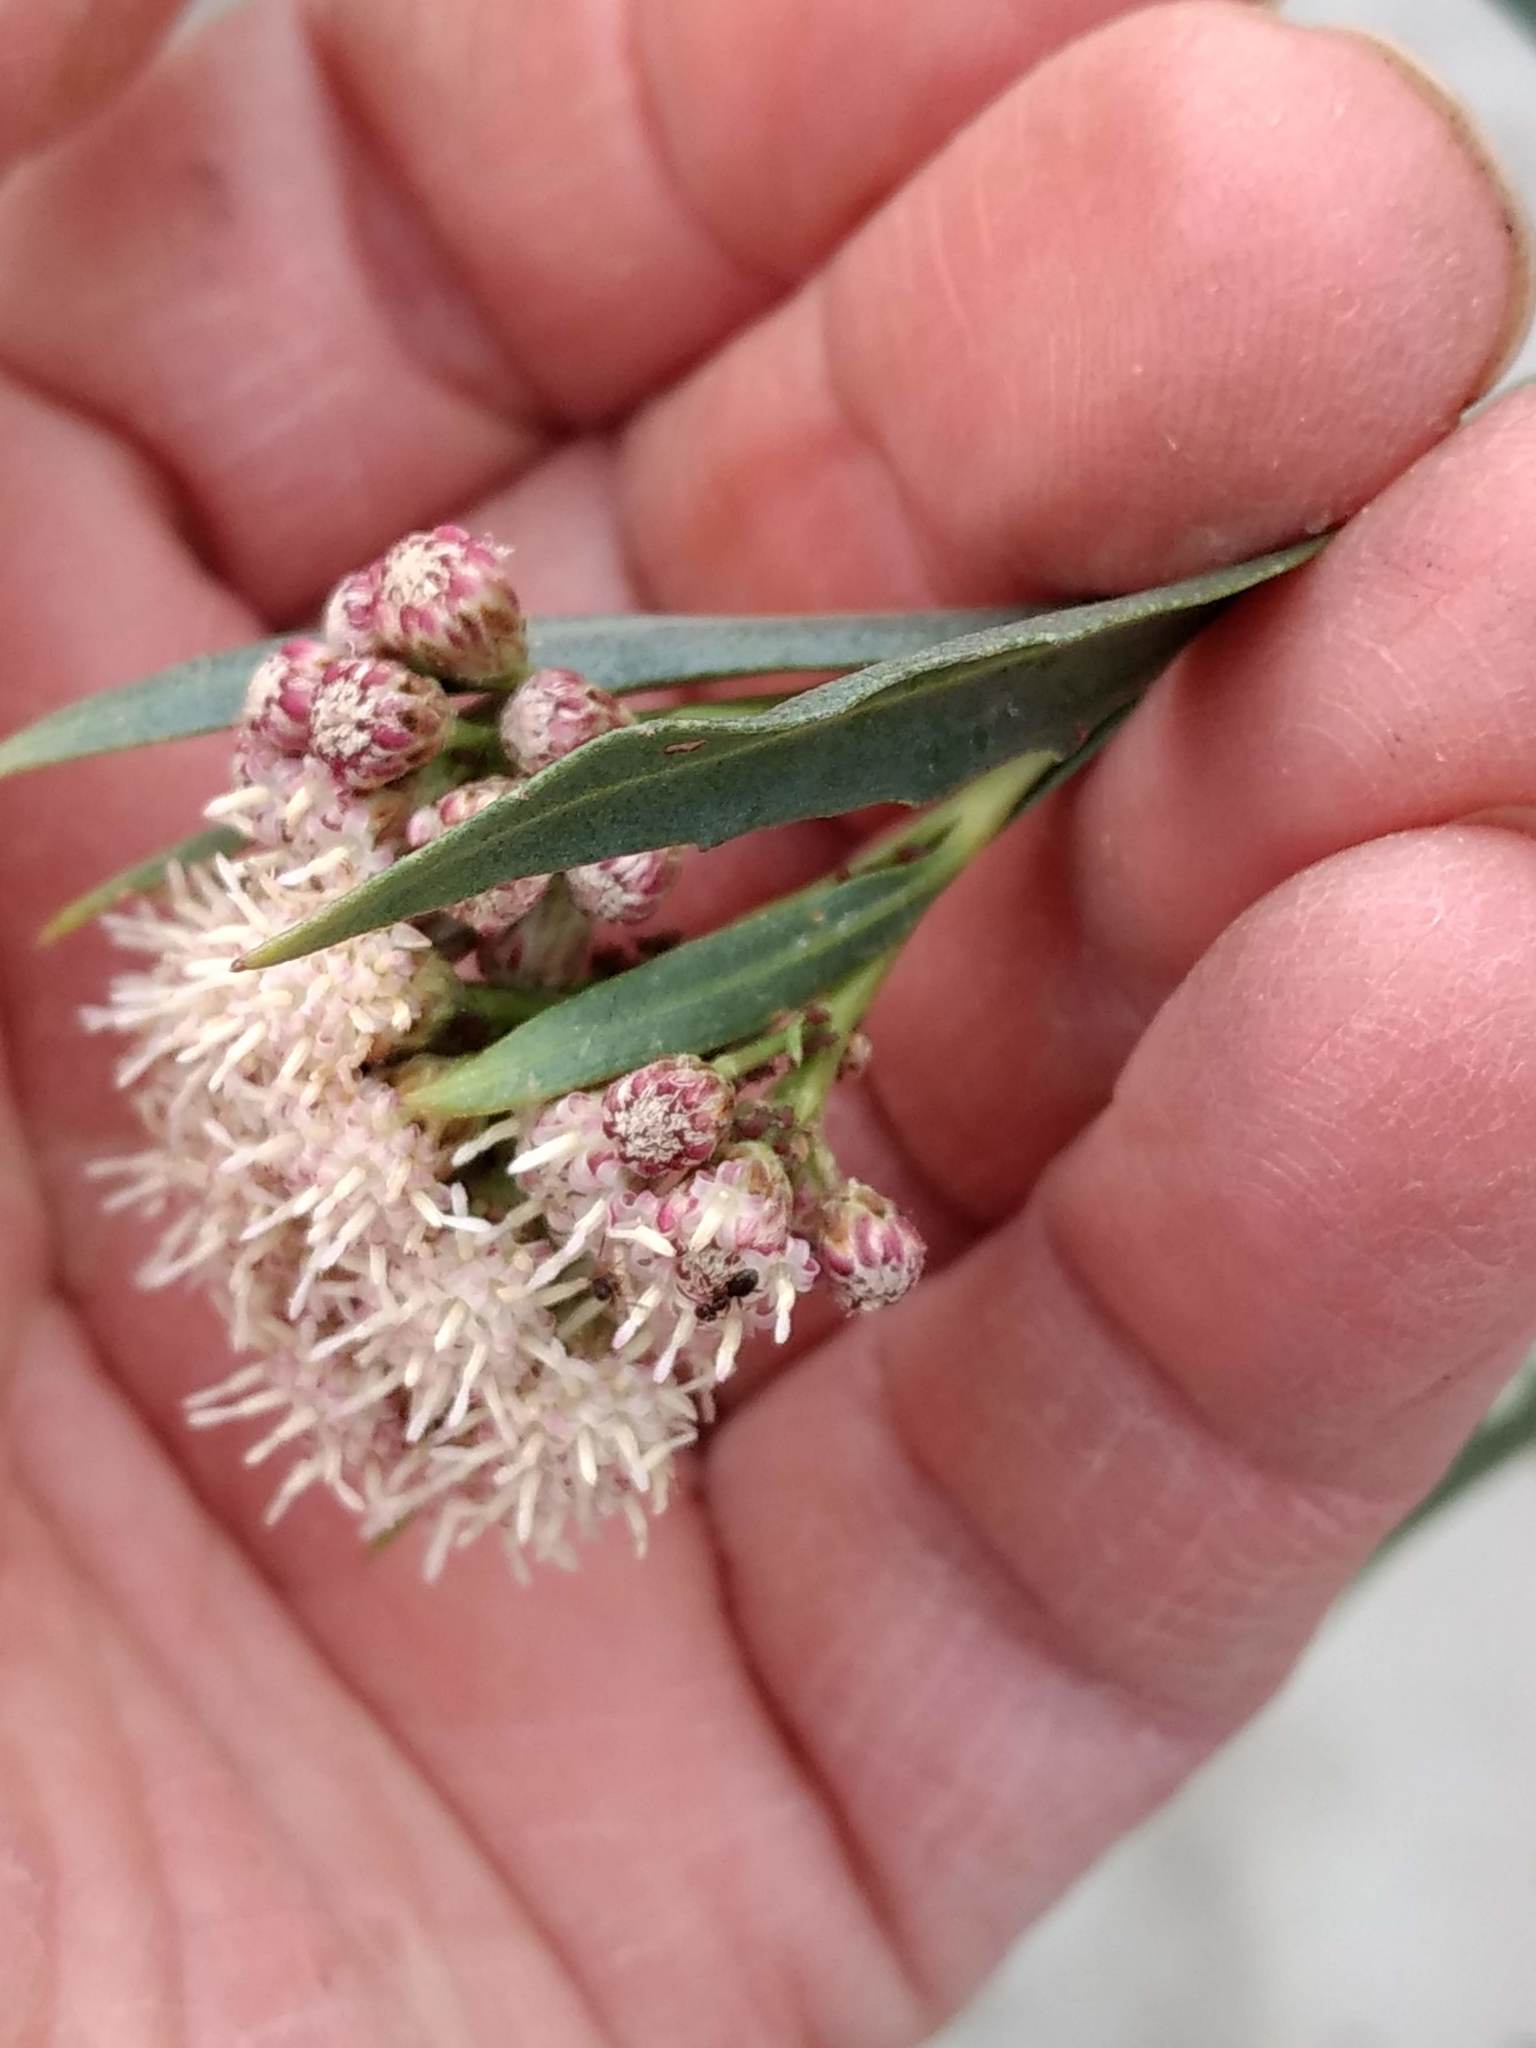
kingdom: Plantae
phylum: Tracheophyta
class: Magnoliopsida
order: Asterales
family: Asteraceae
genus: Baccharis
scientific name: Baccharis salicifolia
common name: Sticky baccharis
